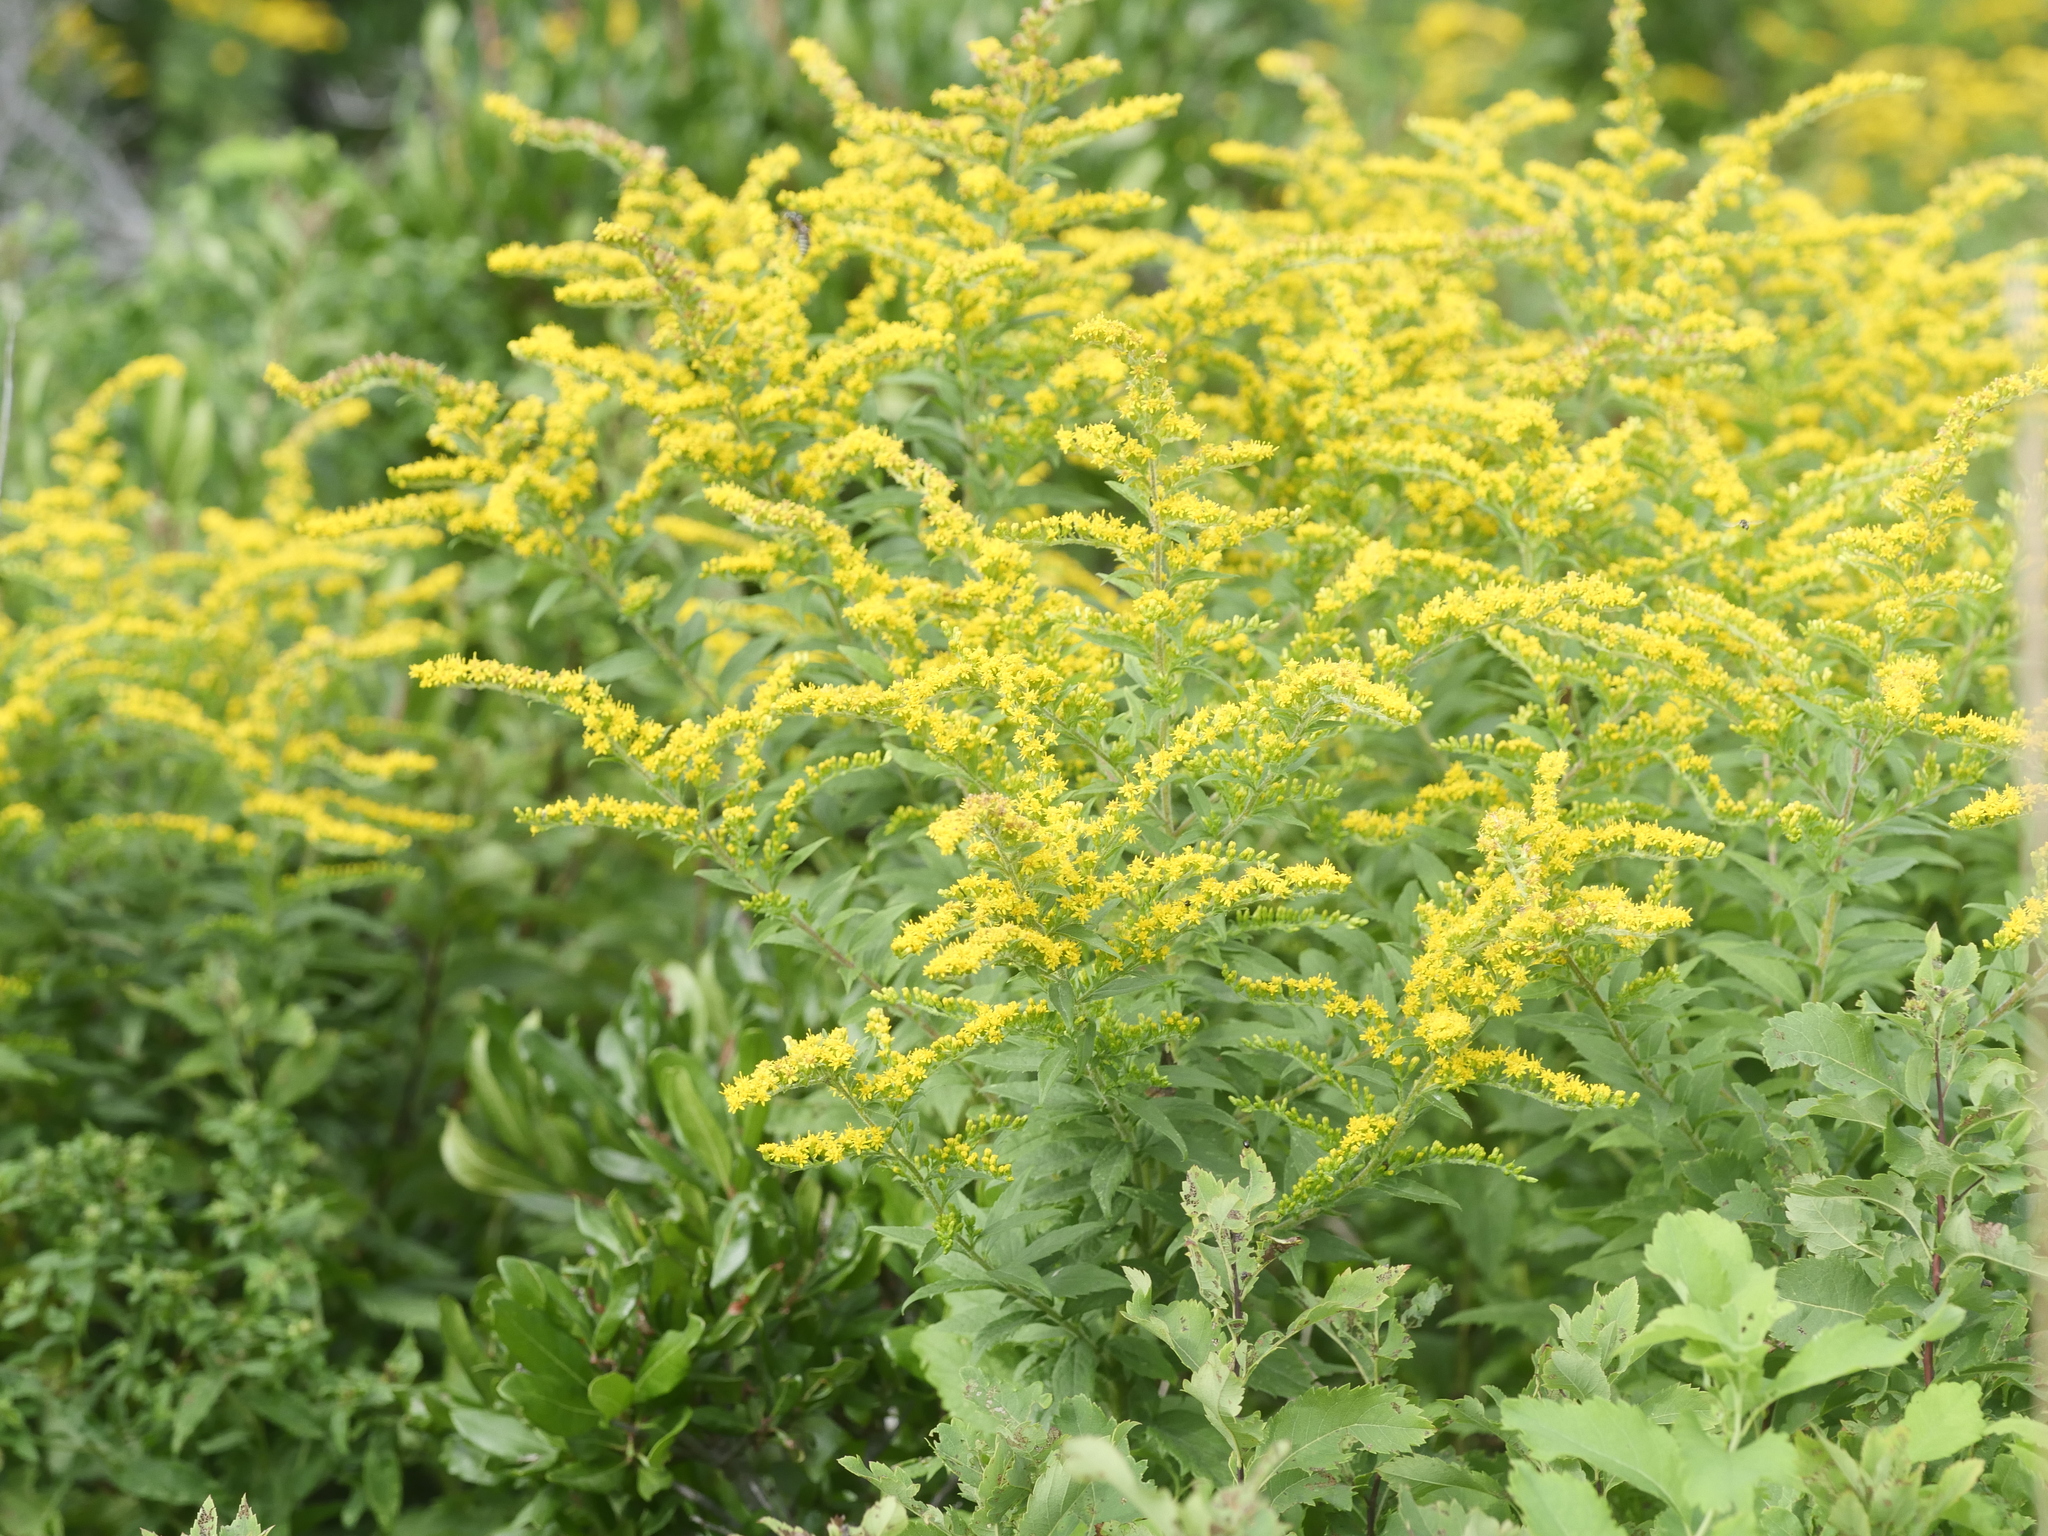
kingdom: Plantae
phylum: Tracheophyta
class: Magnoliopsida
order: Asterales
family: Asteraceae
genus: Solidago
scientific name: Solidago rugosa
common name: Rough-stemmed goldenrod
